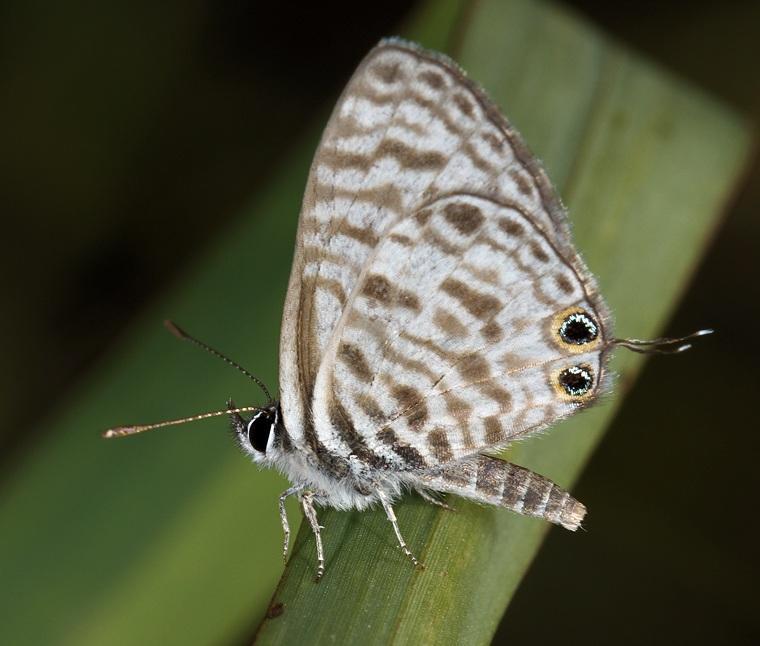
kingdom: Animalia
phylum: Arthropoda
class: Insecta
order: Lepidoptera
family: Lycaenidae
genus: Leptotes
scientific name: Leptotes
